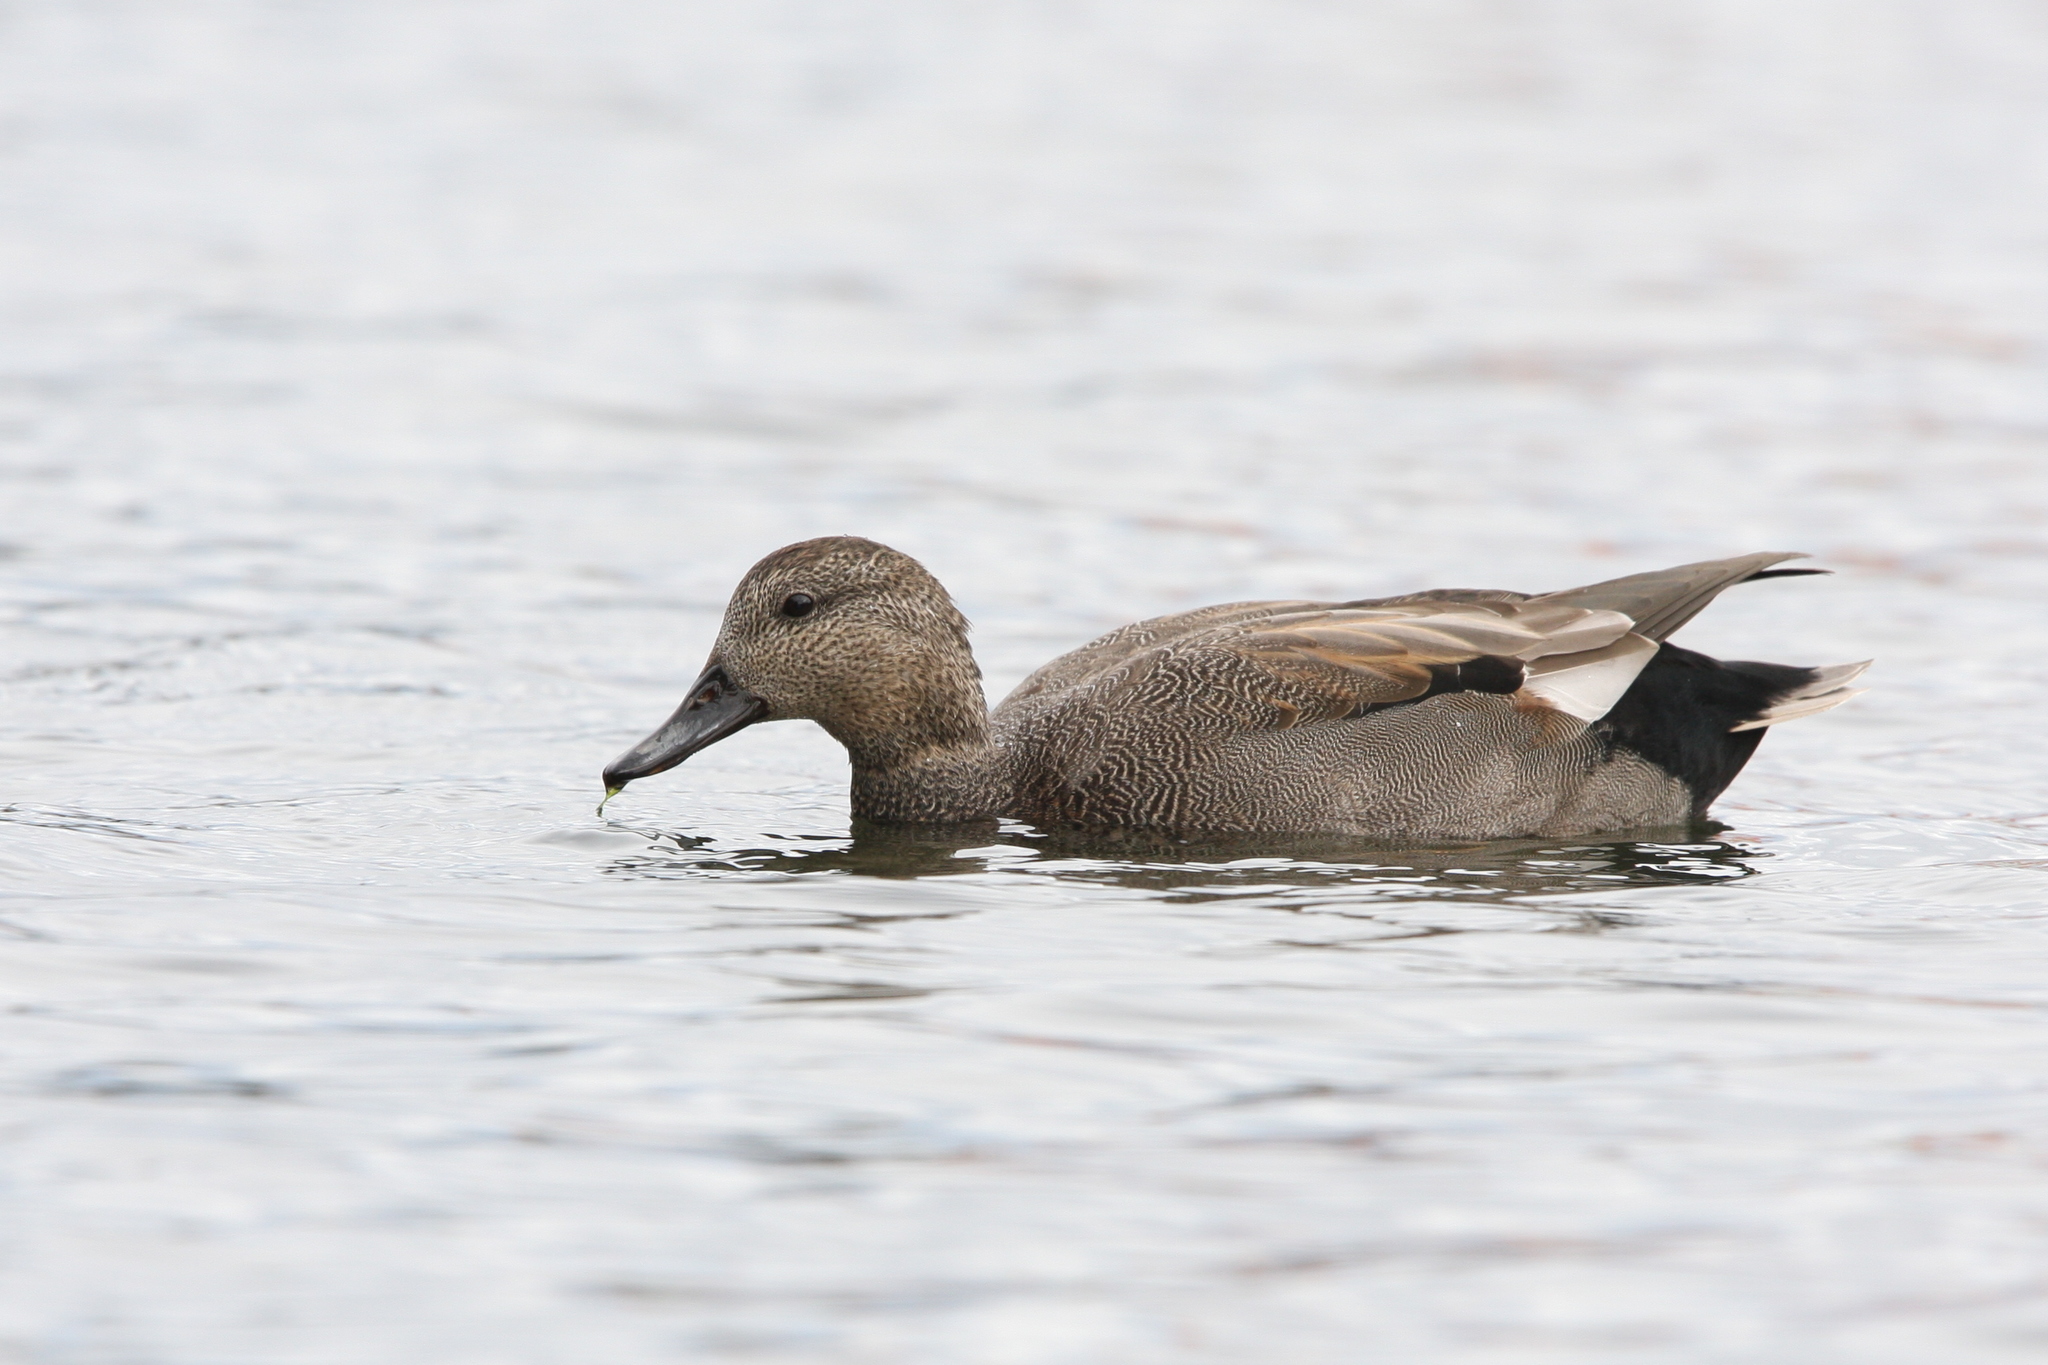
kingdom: Animalia
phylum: Chordata
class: Aves
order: Anseriformes
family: Anatidae
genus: Mareca
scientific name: Mareca strepera
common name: Gadwall
